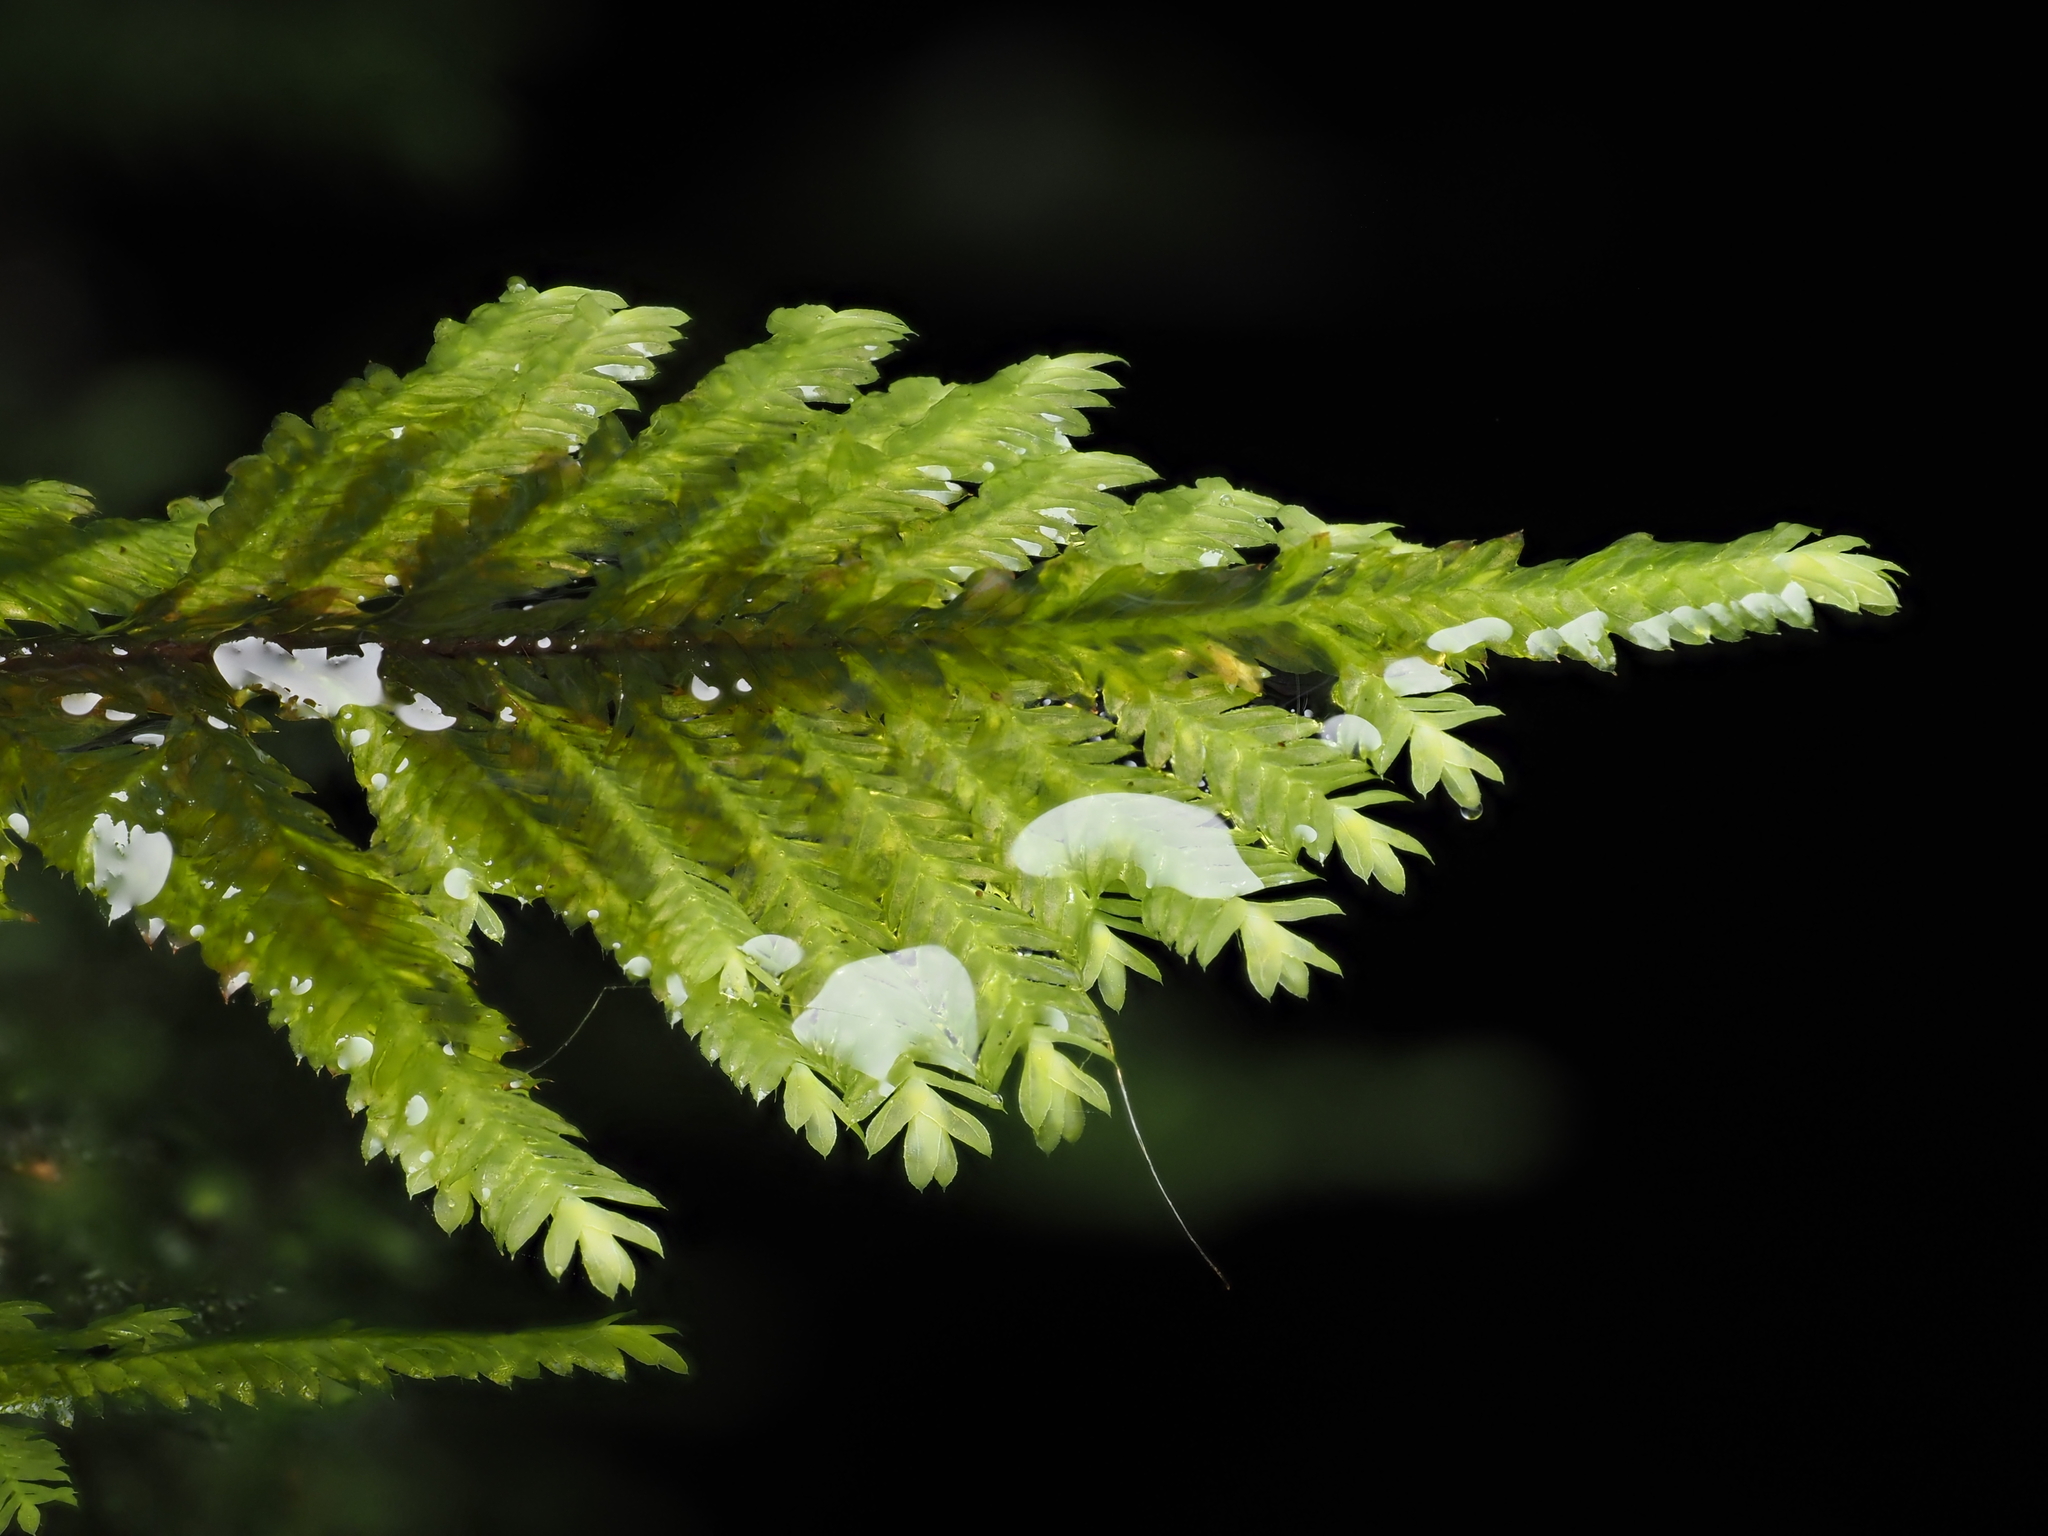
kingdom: Plantae
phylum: Bryophyta
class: Bryopsida
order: Hypopterygiales
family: Hypopterygiaceae
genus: Lopidium
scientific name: Lopidium concinnum
